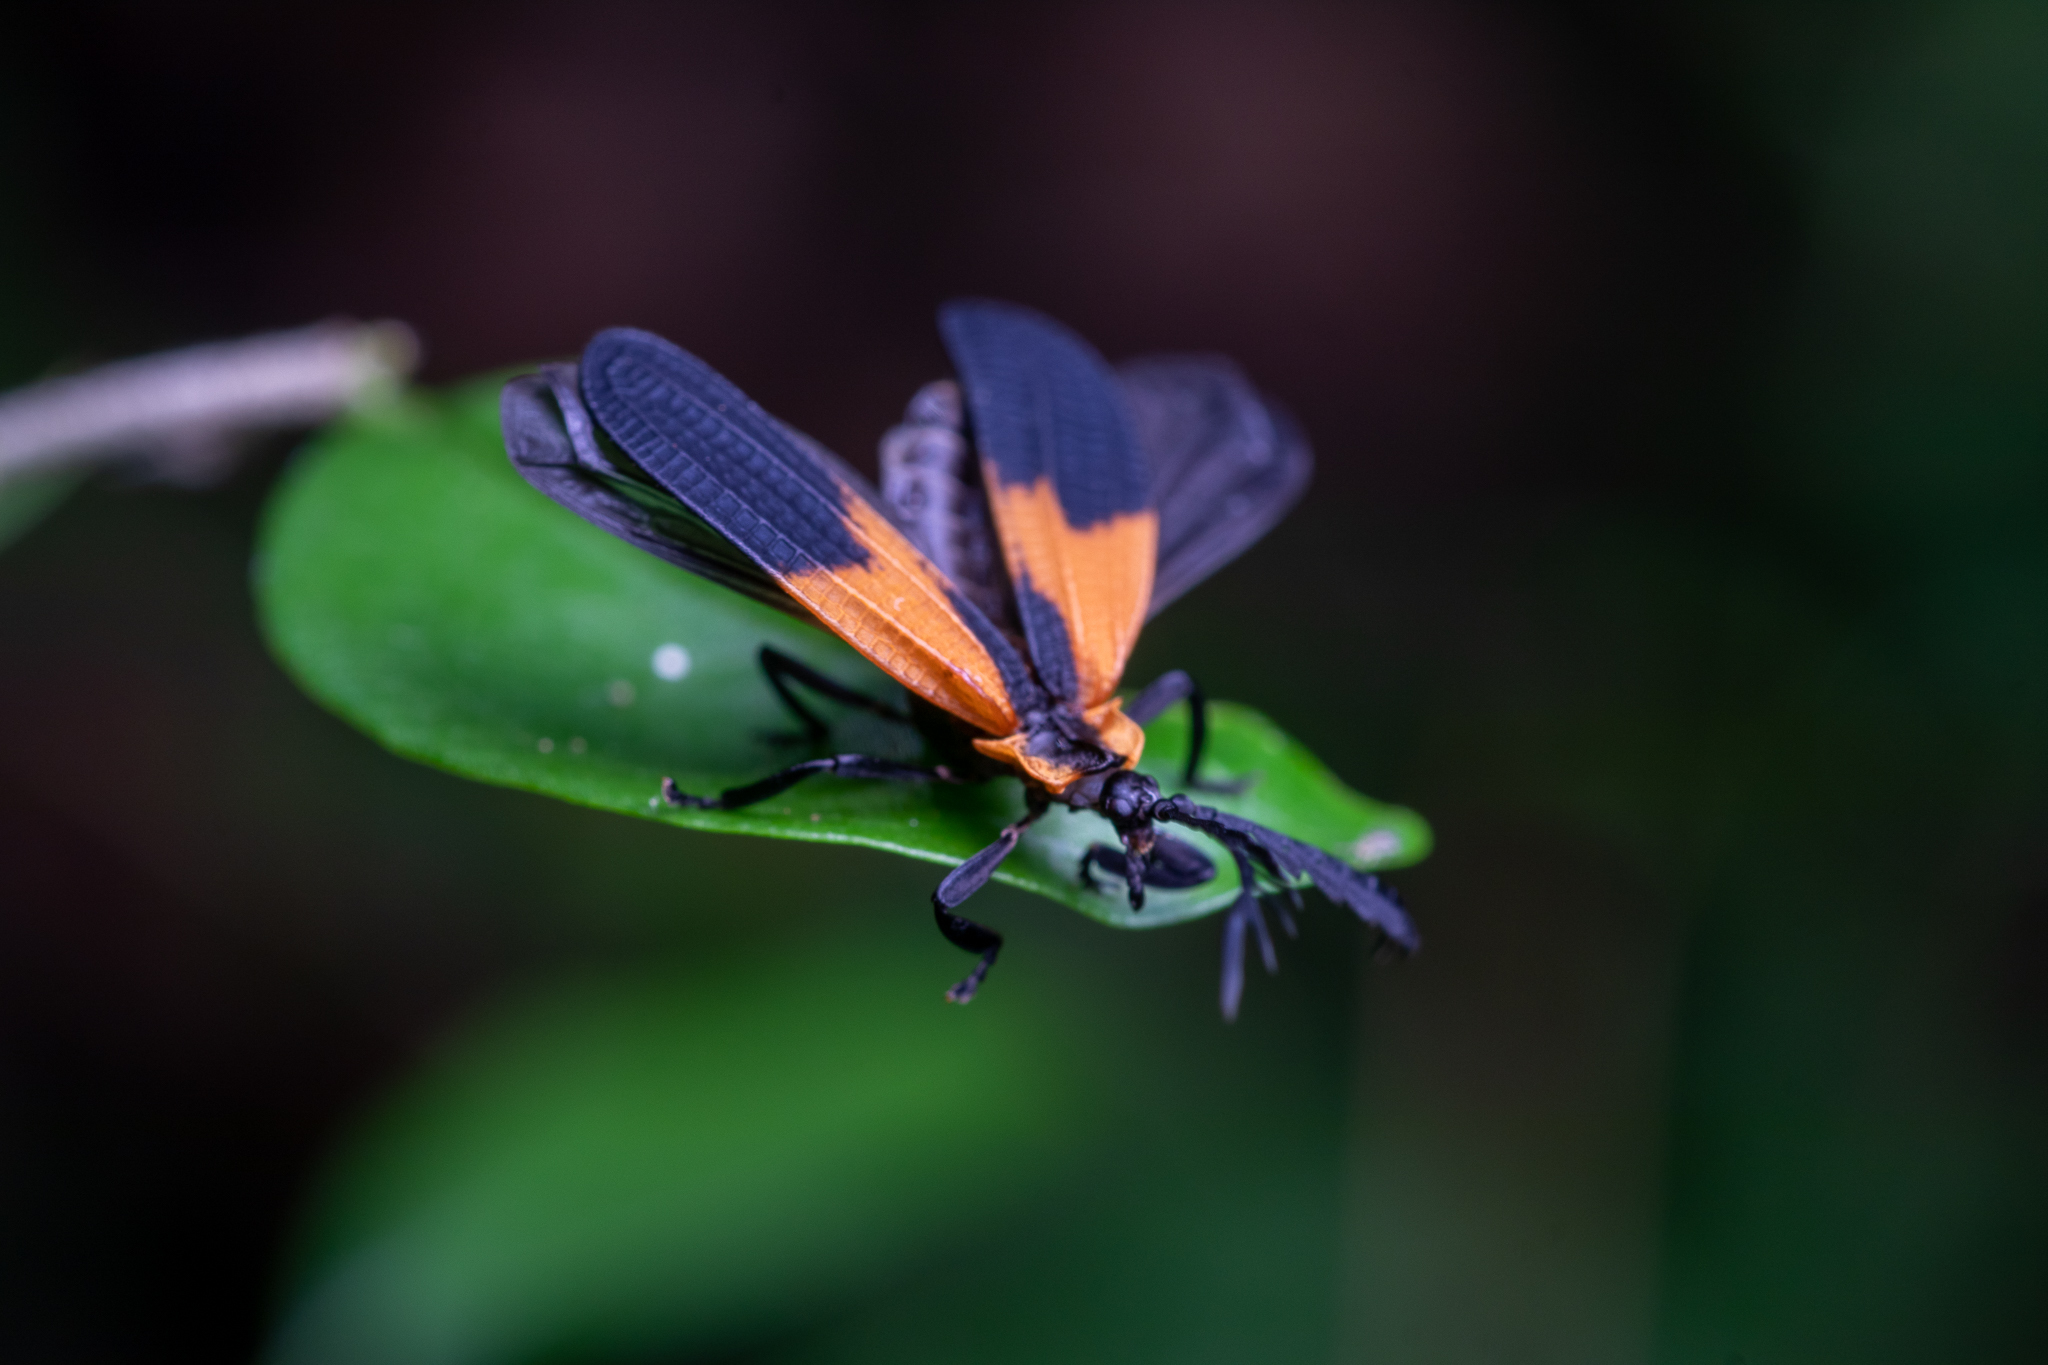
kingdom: Animalia
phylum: Arthropoda
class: Insecta
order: Coleoptera
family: Lycidae
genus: Caenia
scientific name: Caenia dimidiata
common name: Terminal net-winged beetle
